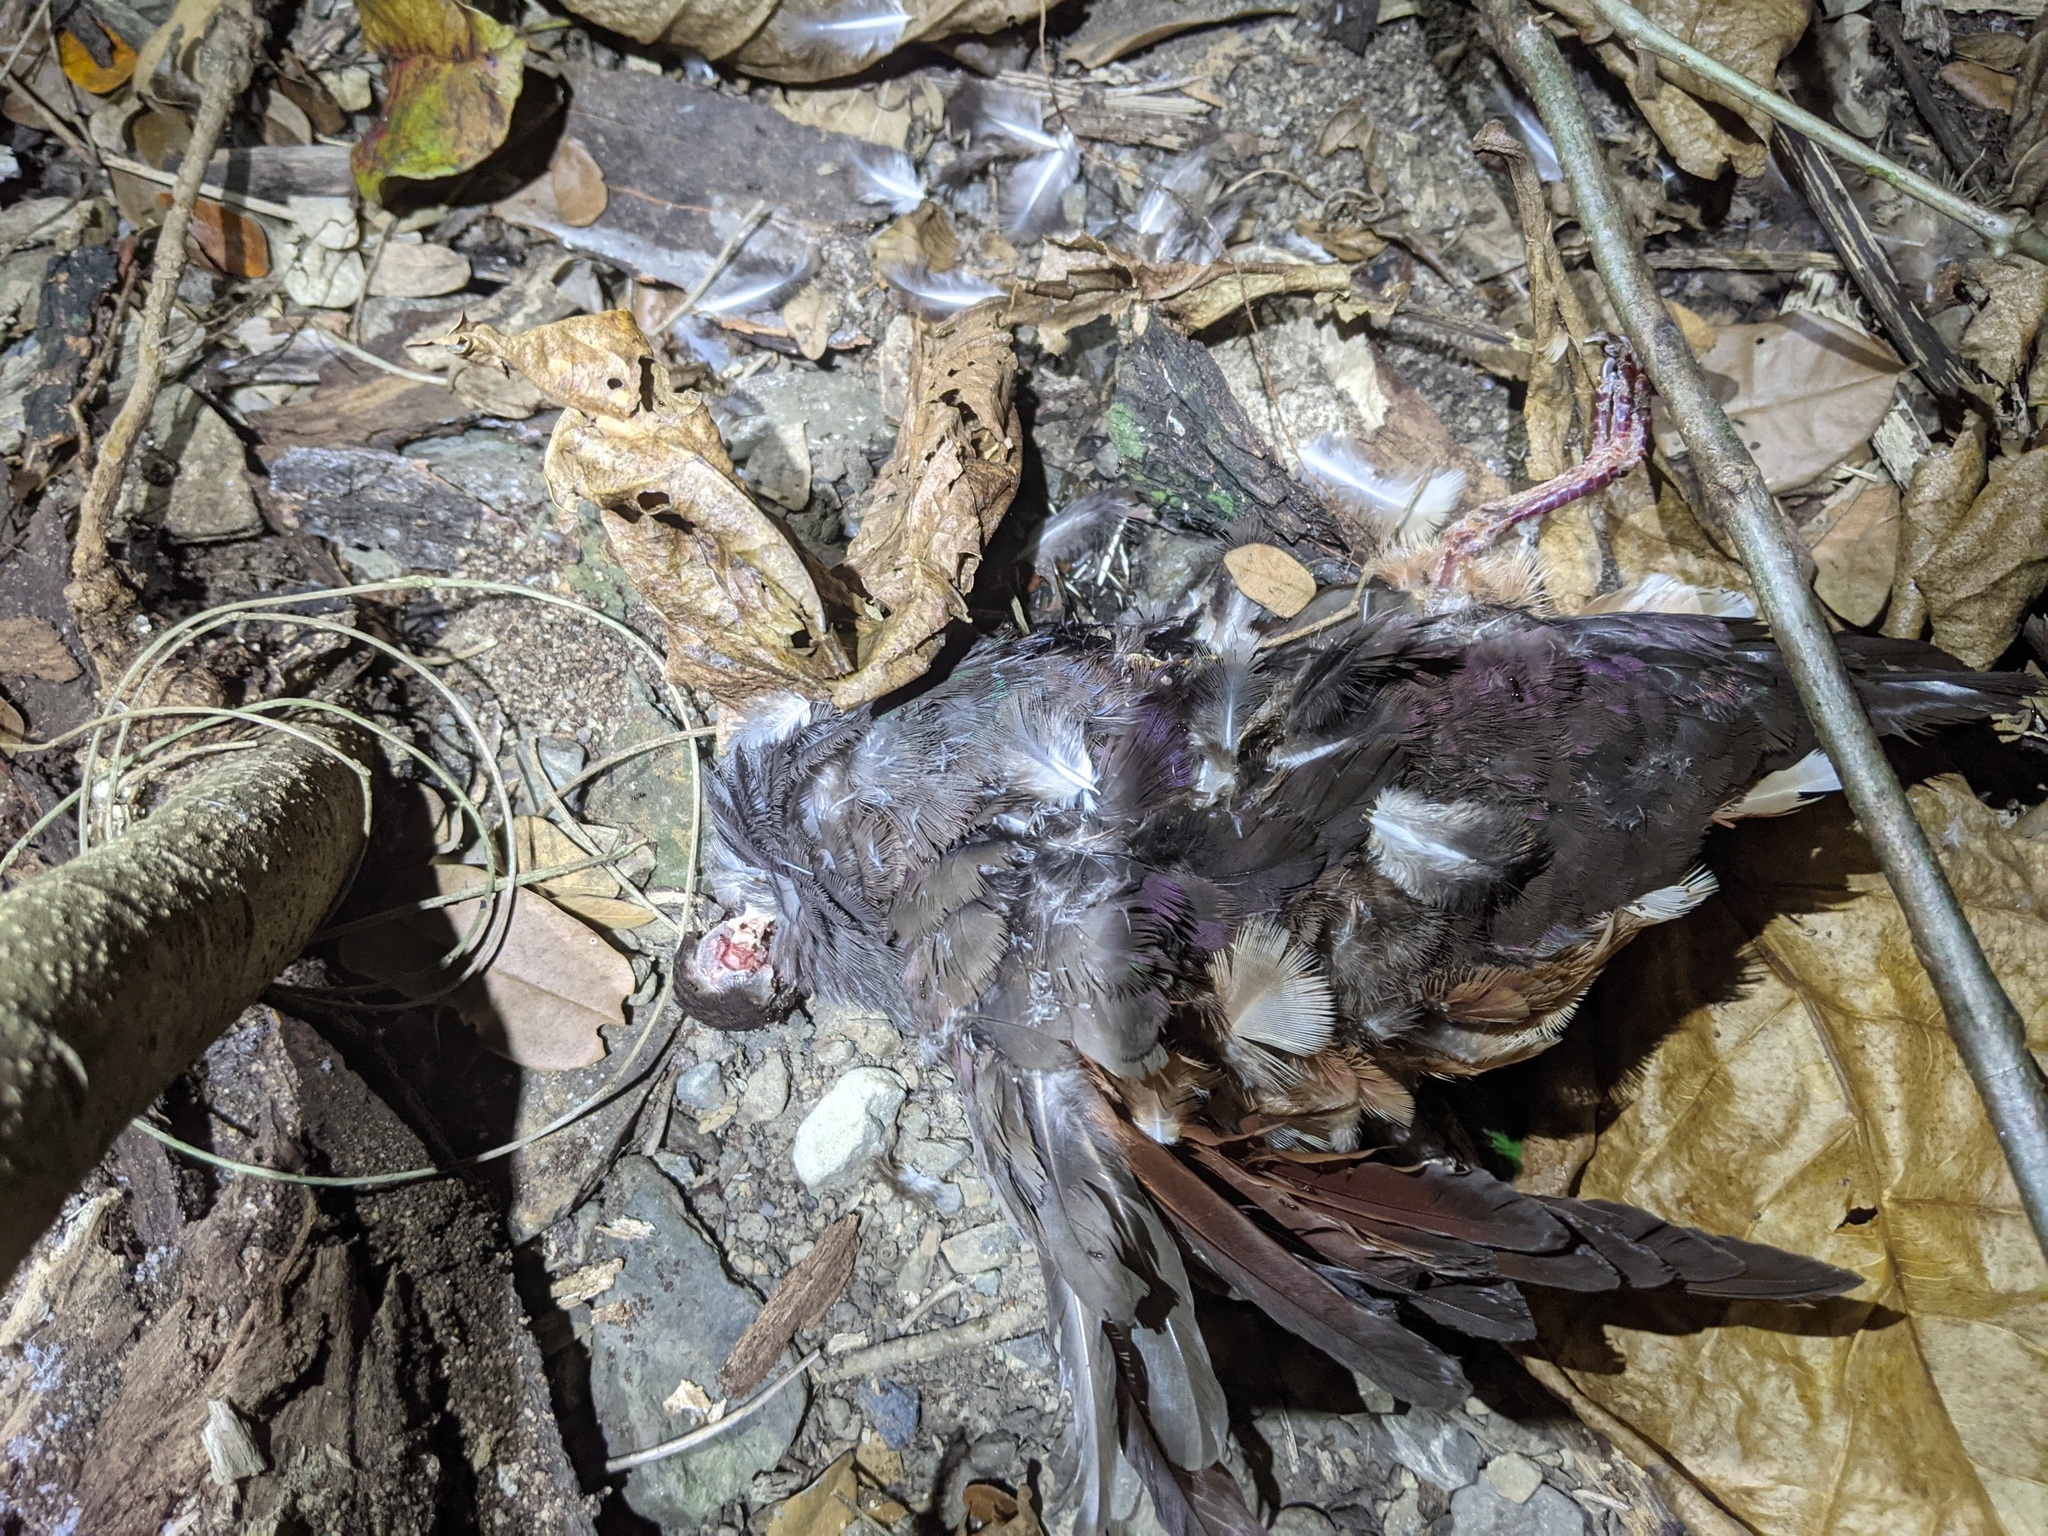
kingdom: Animalia
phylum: Chordata
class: Aves
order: Columbiformes
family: Columbidae
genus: Geotrygon
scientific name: Geotrygon mystacea
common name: Bridled quail-dove
